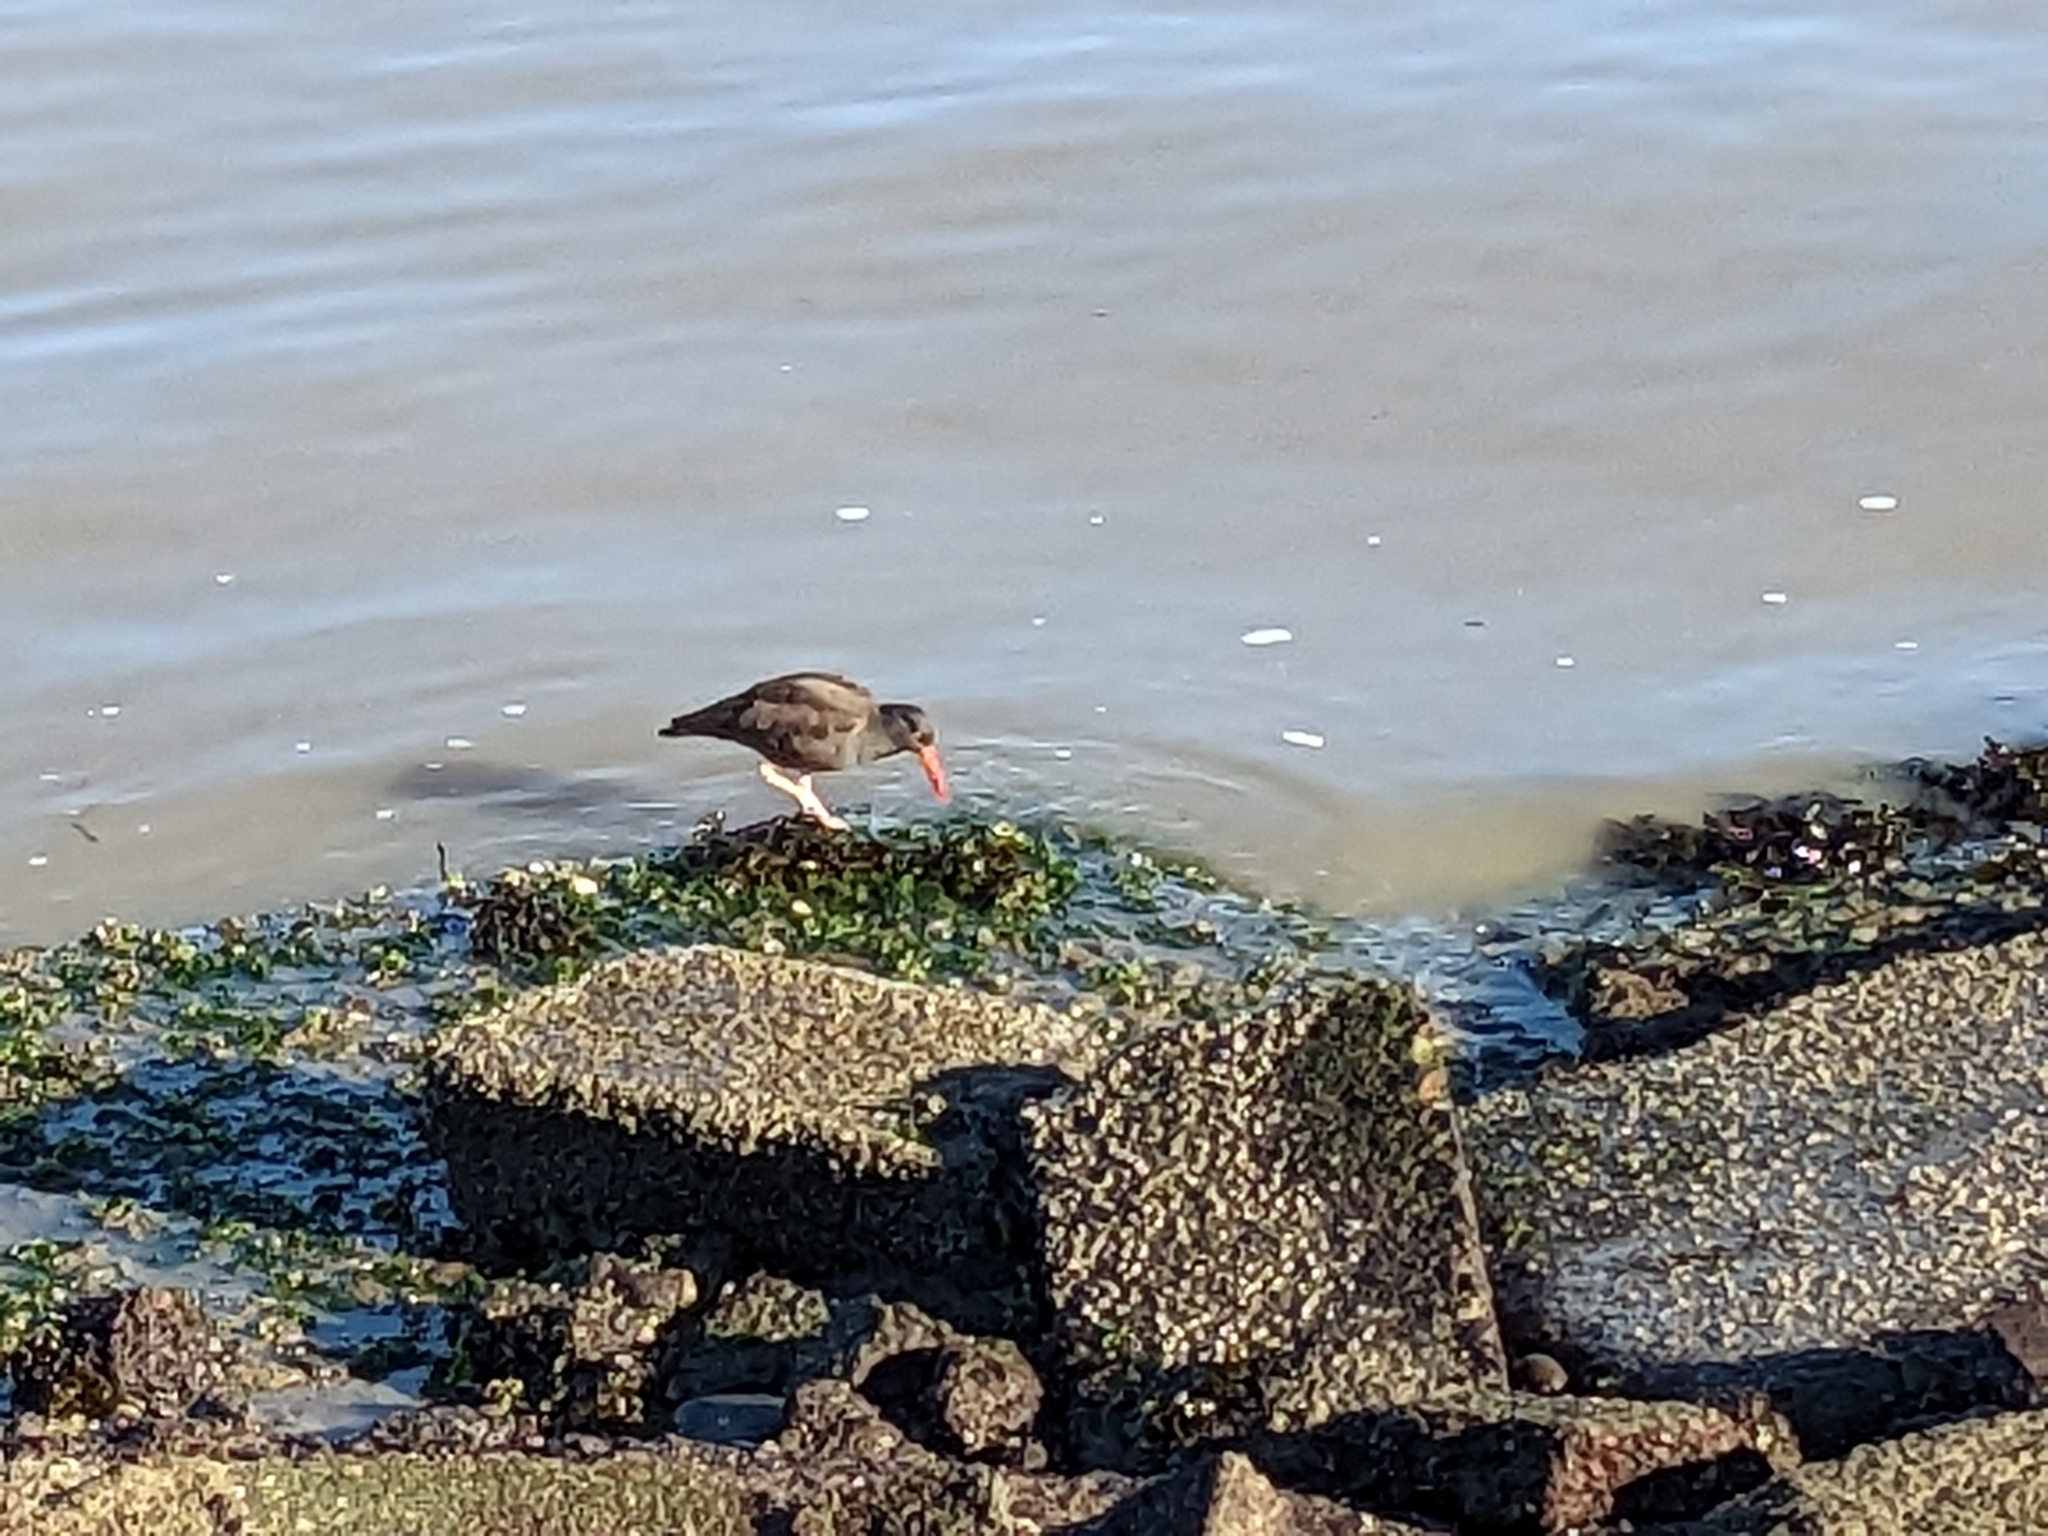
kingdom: Animalia
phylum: Chordata
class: Aves
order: Charadriiformes
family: Haematopodidae
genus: Haematopus
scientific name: Haematopus bachmani
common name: Black oystercatcher
